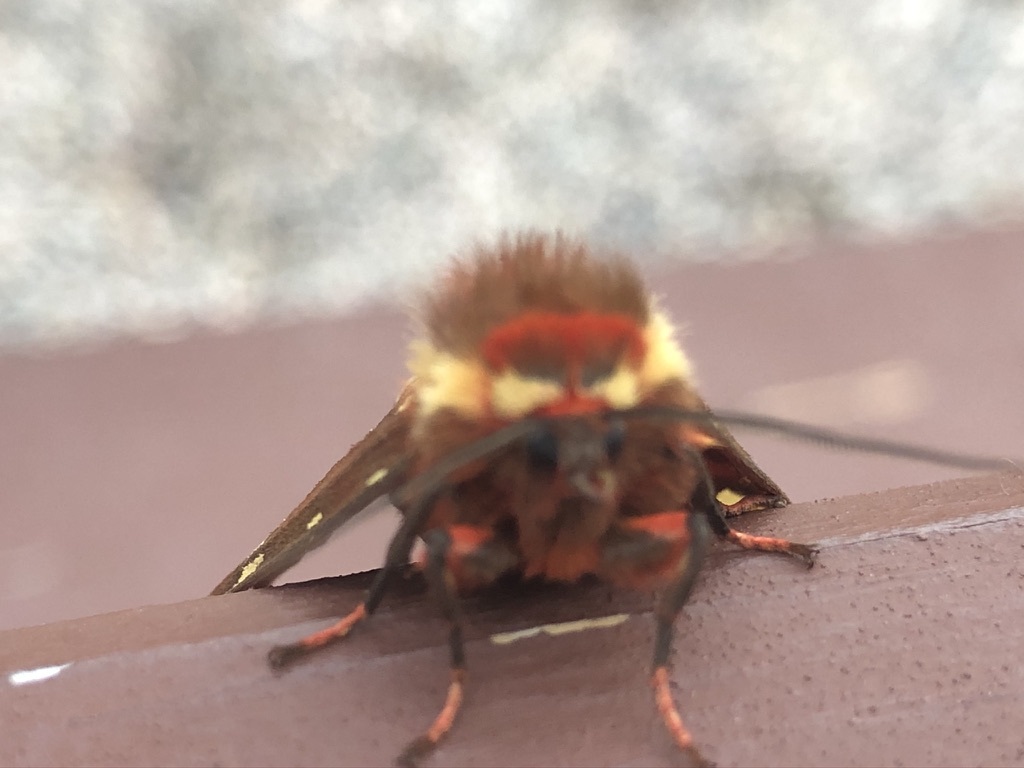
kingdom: Animalia
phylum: Arthropoda
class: Insecta
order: Lepidoptera
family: Erebidae
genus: Arctia
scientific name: Arctia parthenos
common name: St. lawrence tiger moth
